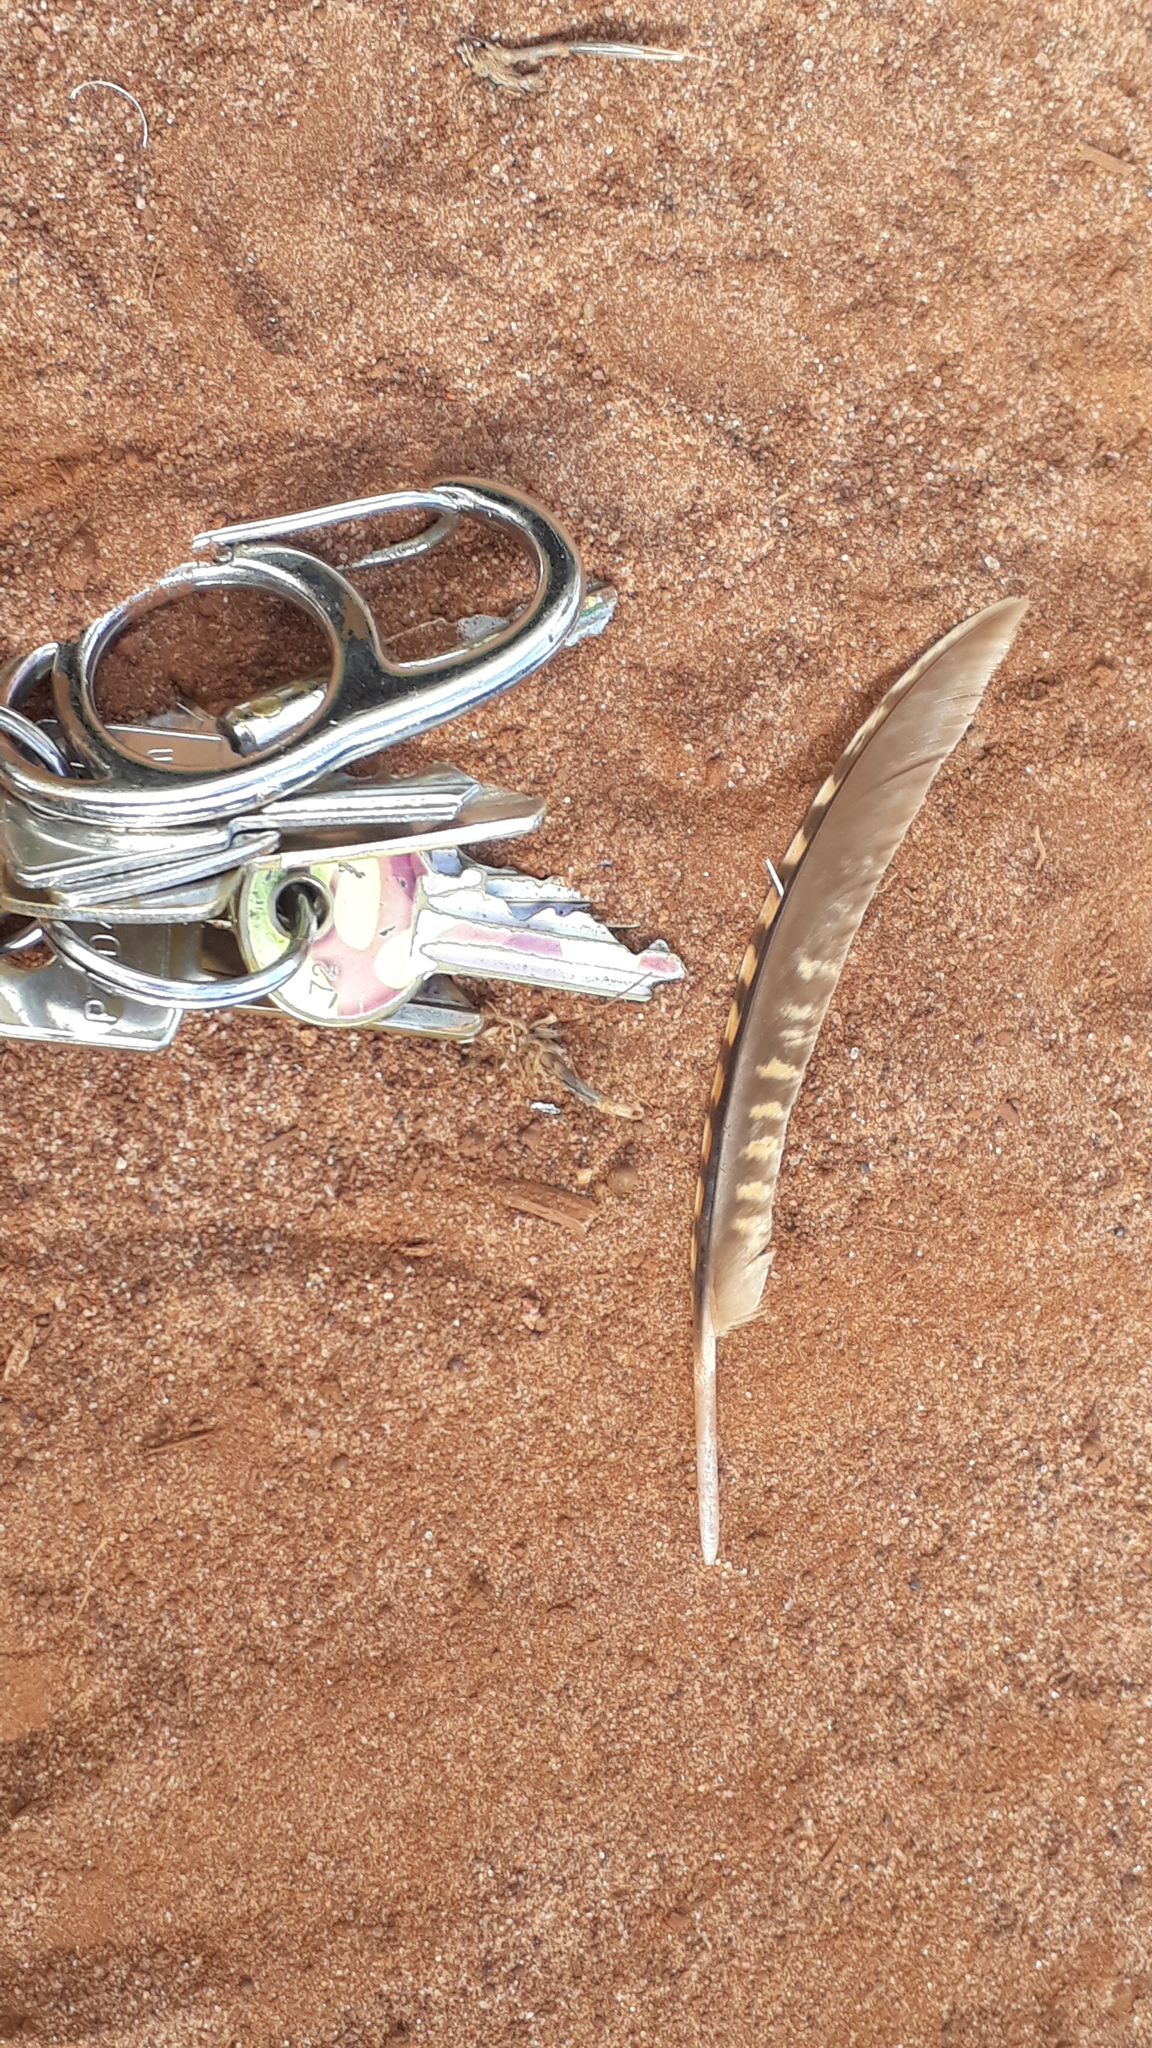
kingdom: Animalia
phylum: Chordata
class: Aves
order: Tinamiformes
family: Tinamidae
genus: Nothura
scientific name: Nothura maculosa
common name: Spotted nothura
